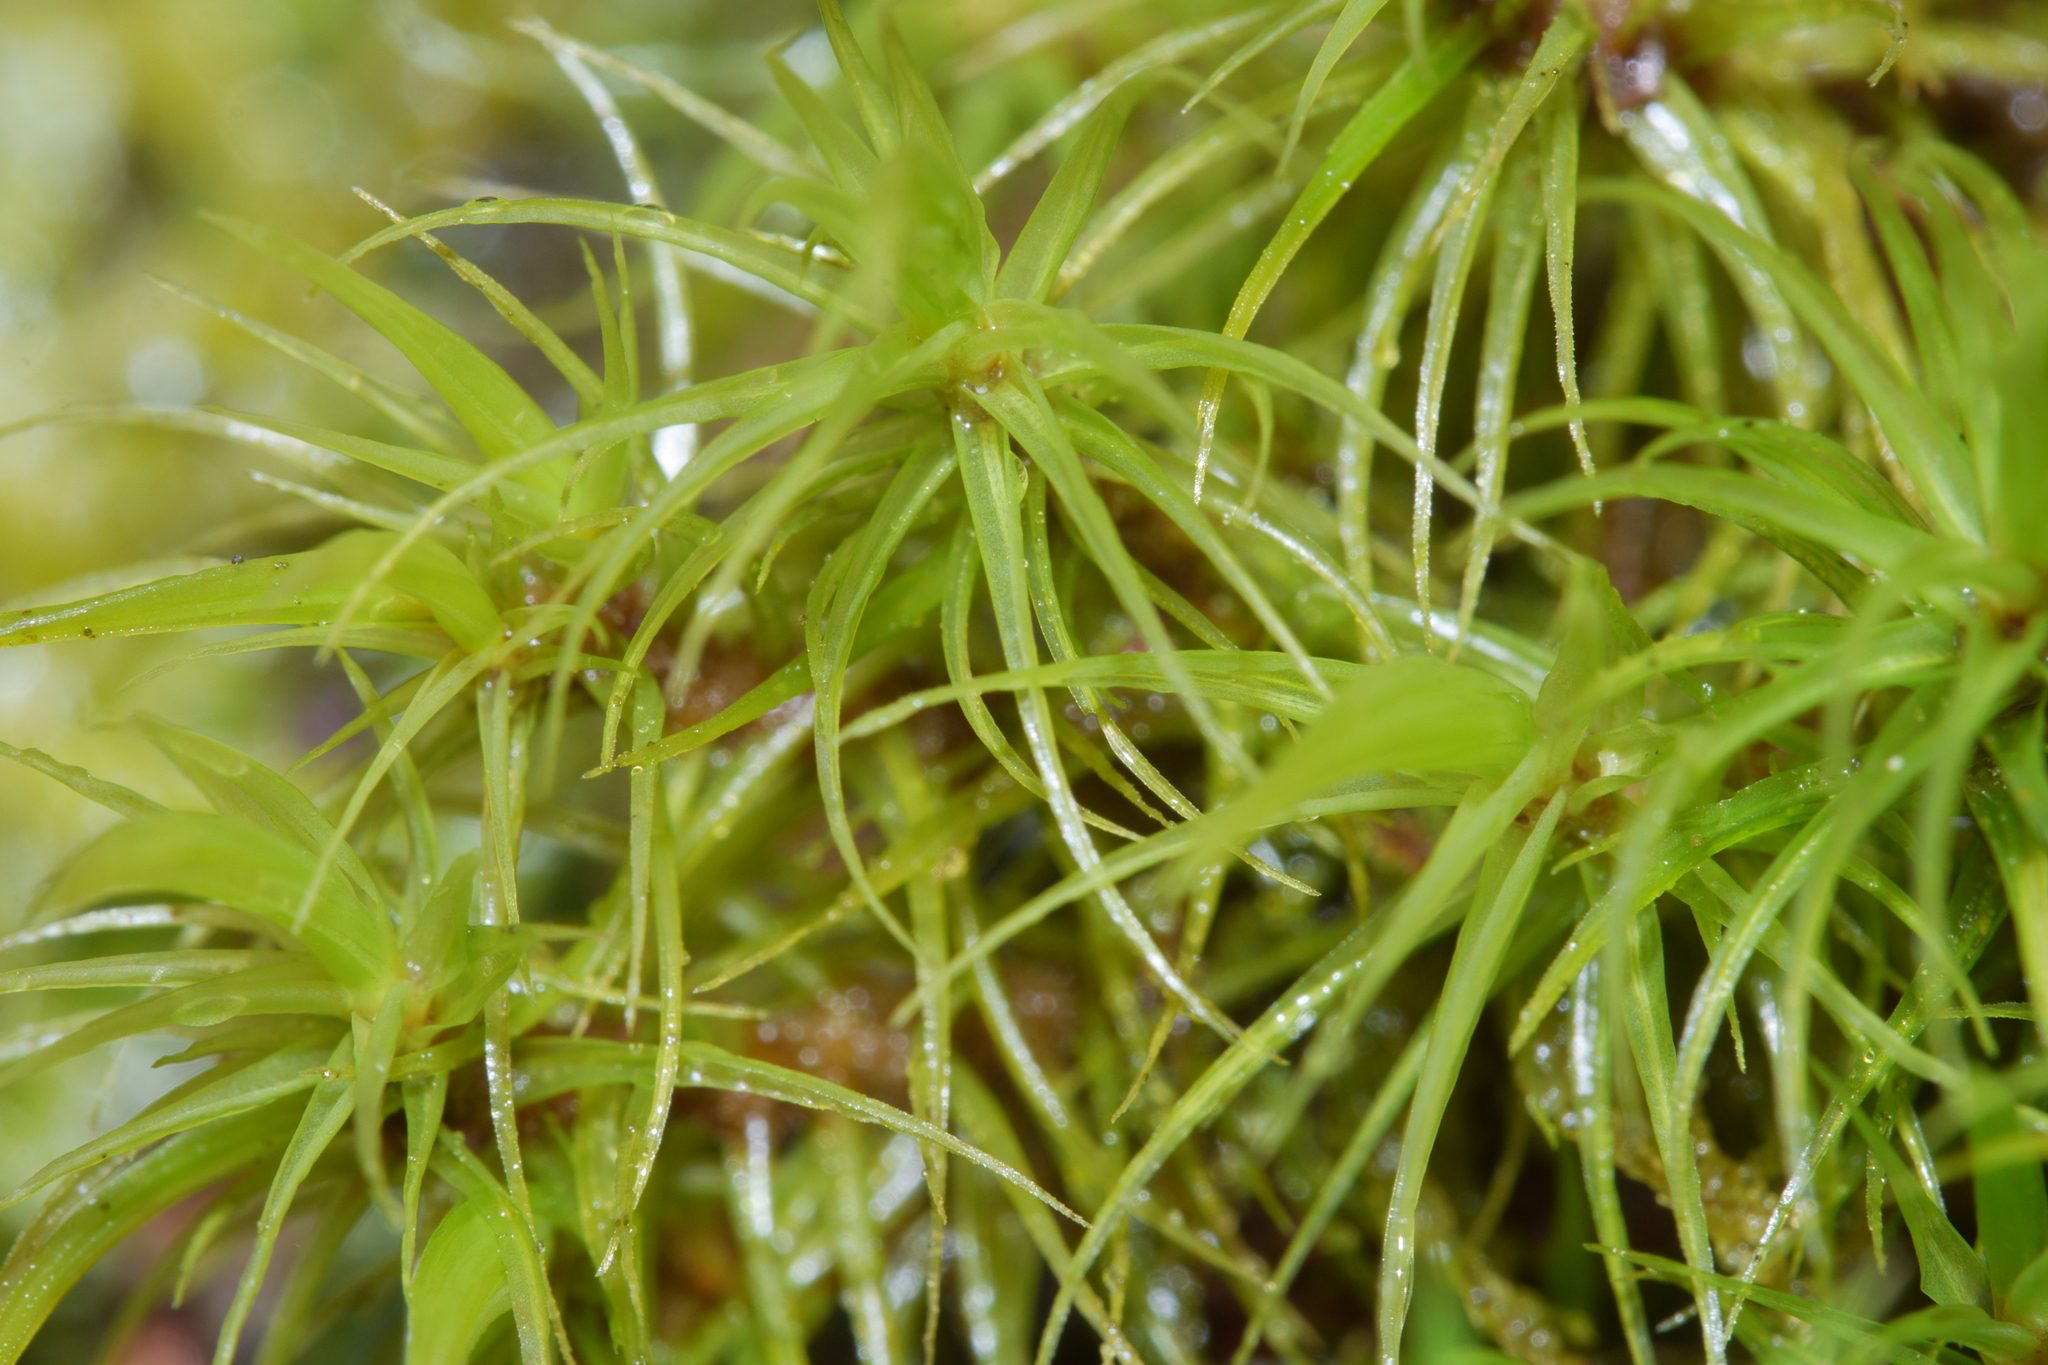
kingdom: Plantae
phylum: Bryophyta
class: Bryopsida
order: Dicranales
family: Dicranaceae
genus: Dicranum
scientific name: Dicranum scoparium
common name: Broom fork-moss
